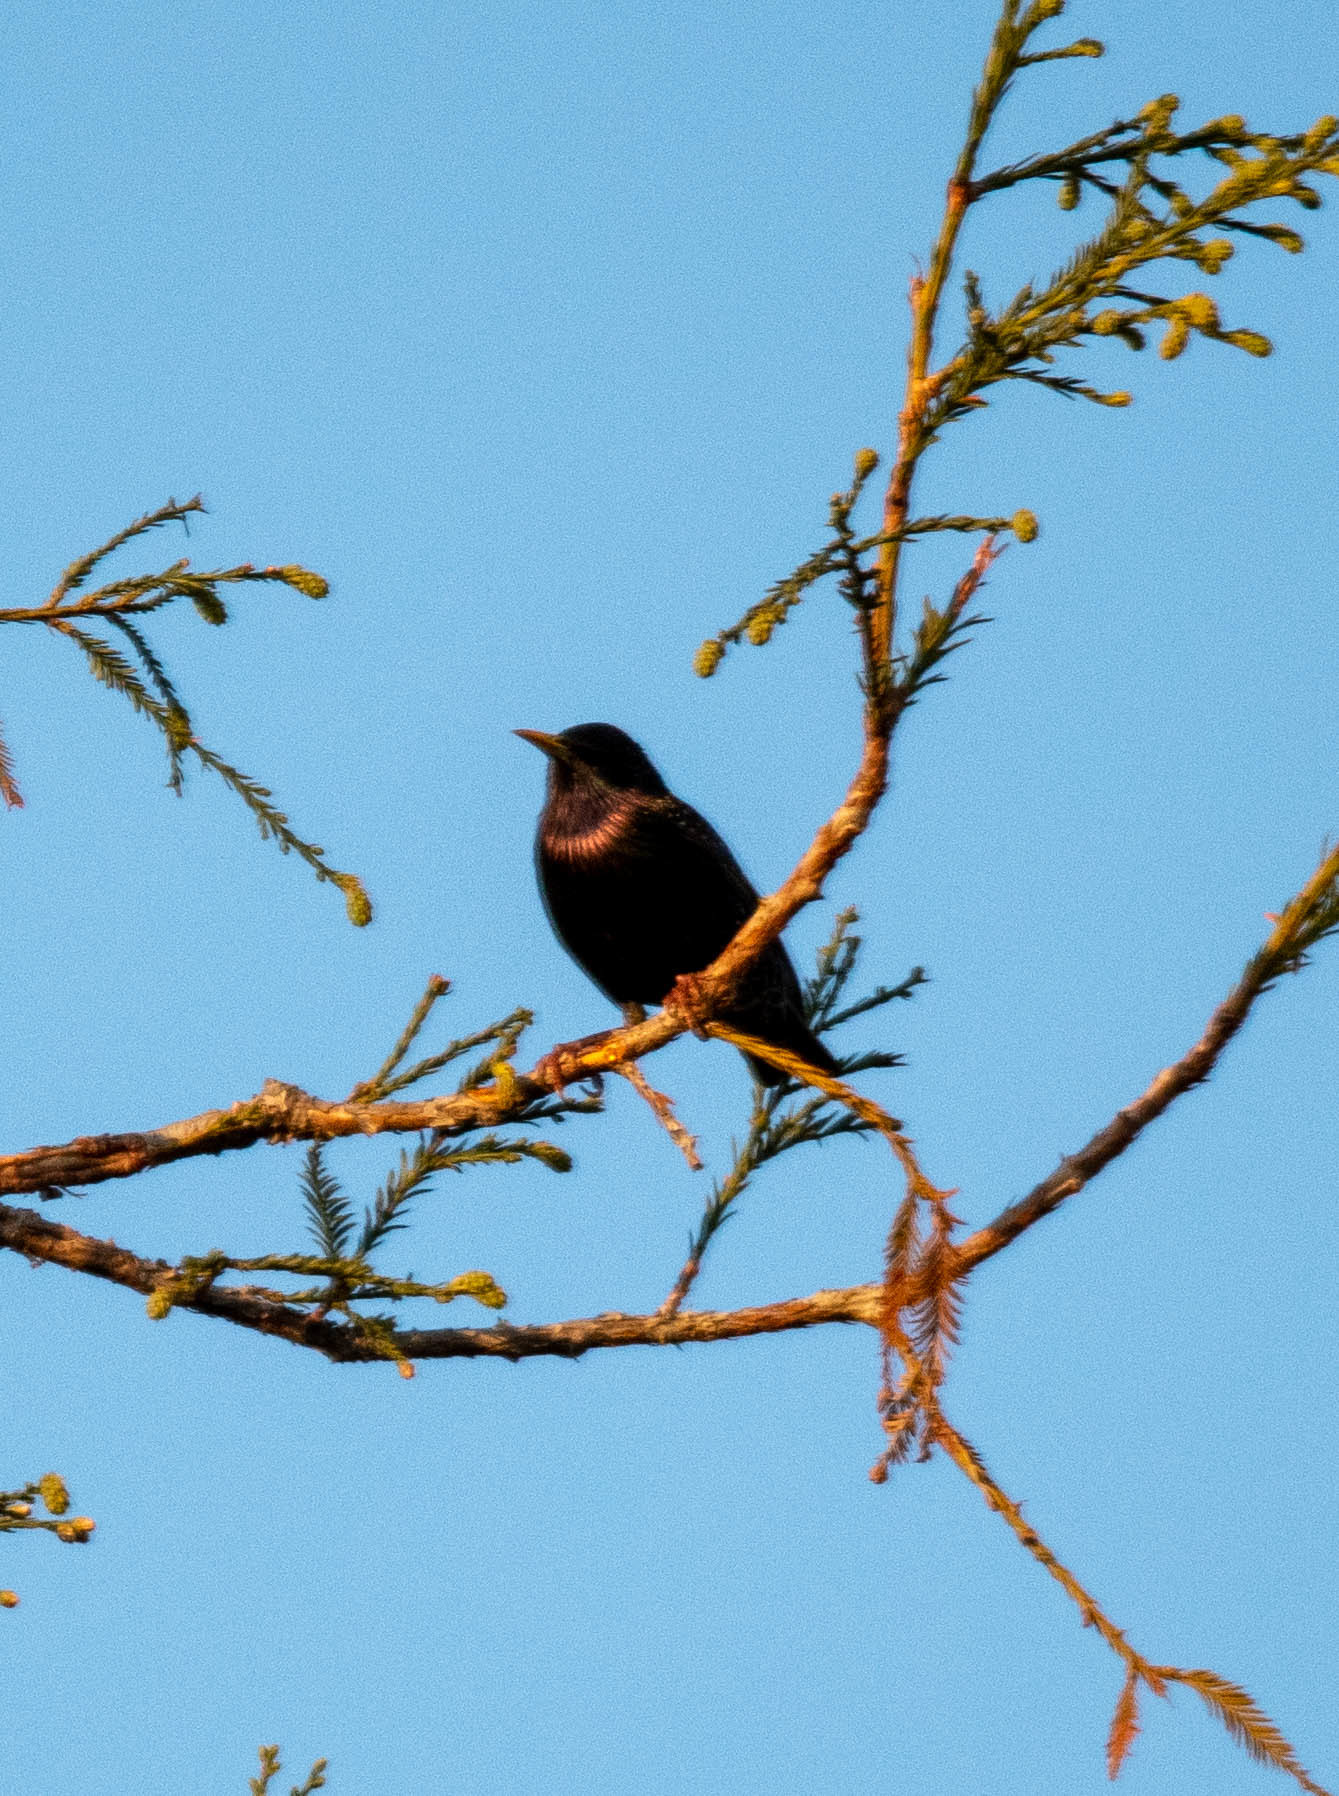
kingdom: Animalia
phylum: Chordata
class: Aves
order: Passeriformes
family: Sturnidae
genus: Sturnus
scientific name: Sturnus vulgaris
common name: Common starling
